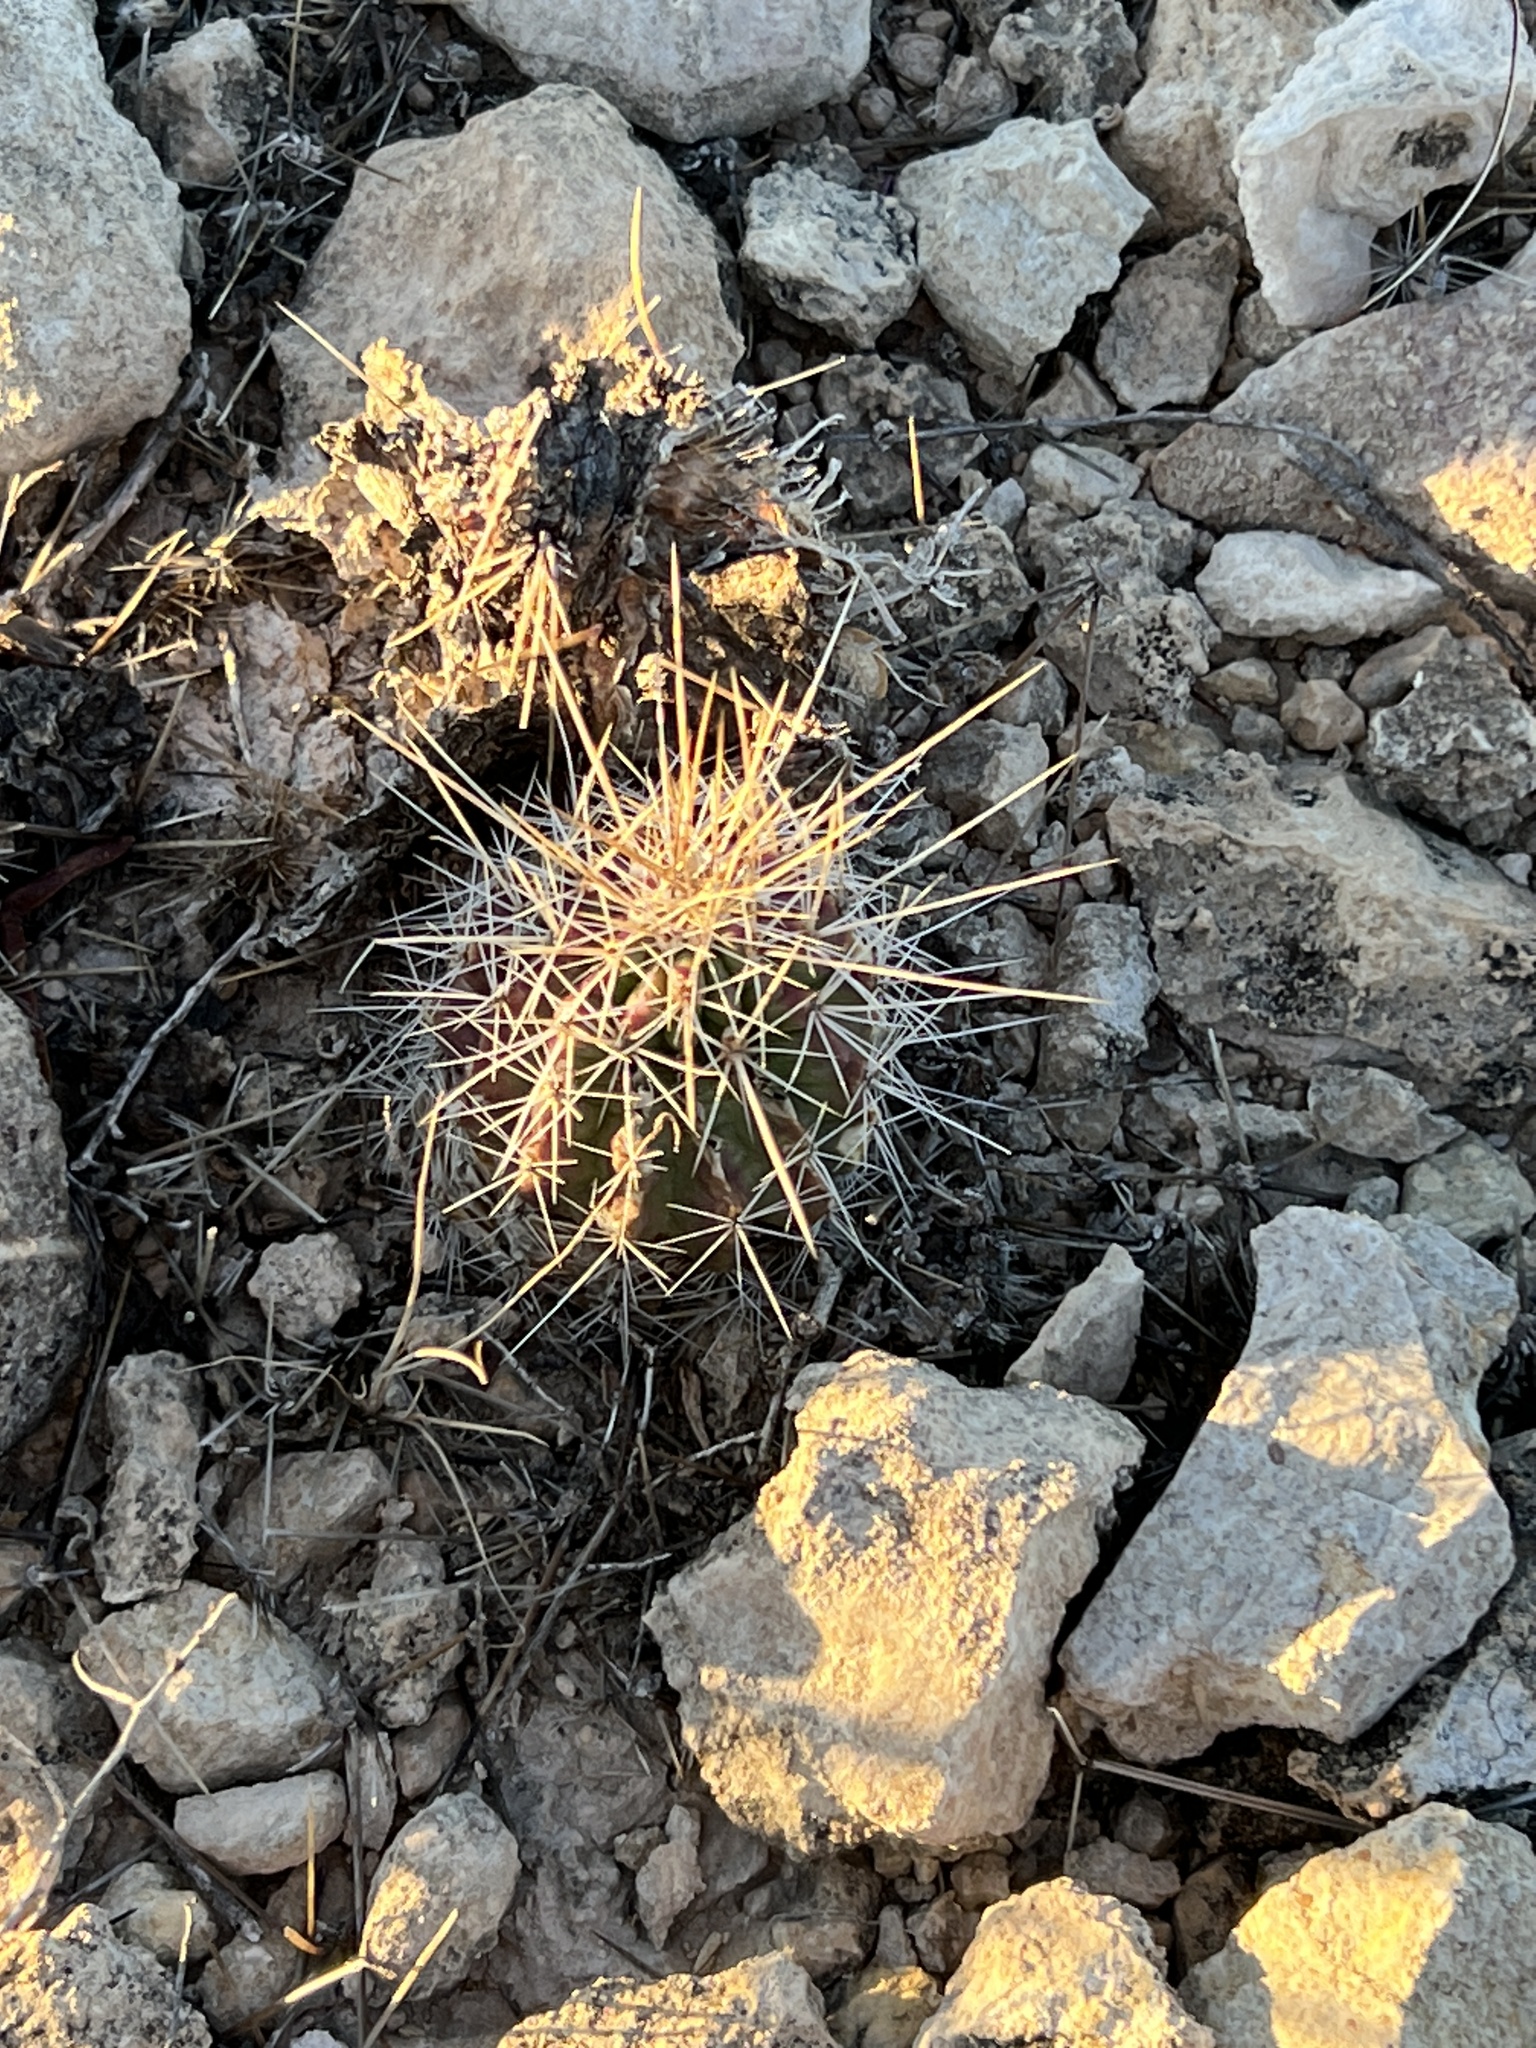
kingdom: Plantae
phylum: Tracheophyta
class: Magnoliopsida
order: Caryophyllales
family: Cactaceae
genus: Echinocereus
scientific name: Echinocereus stramineus
